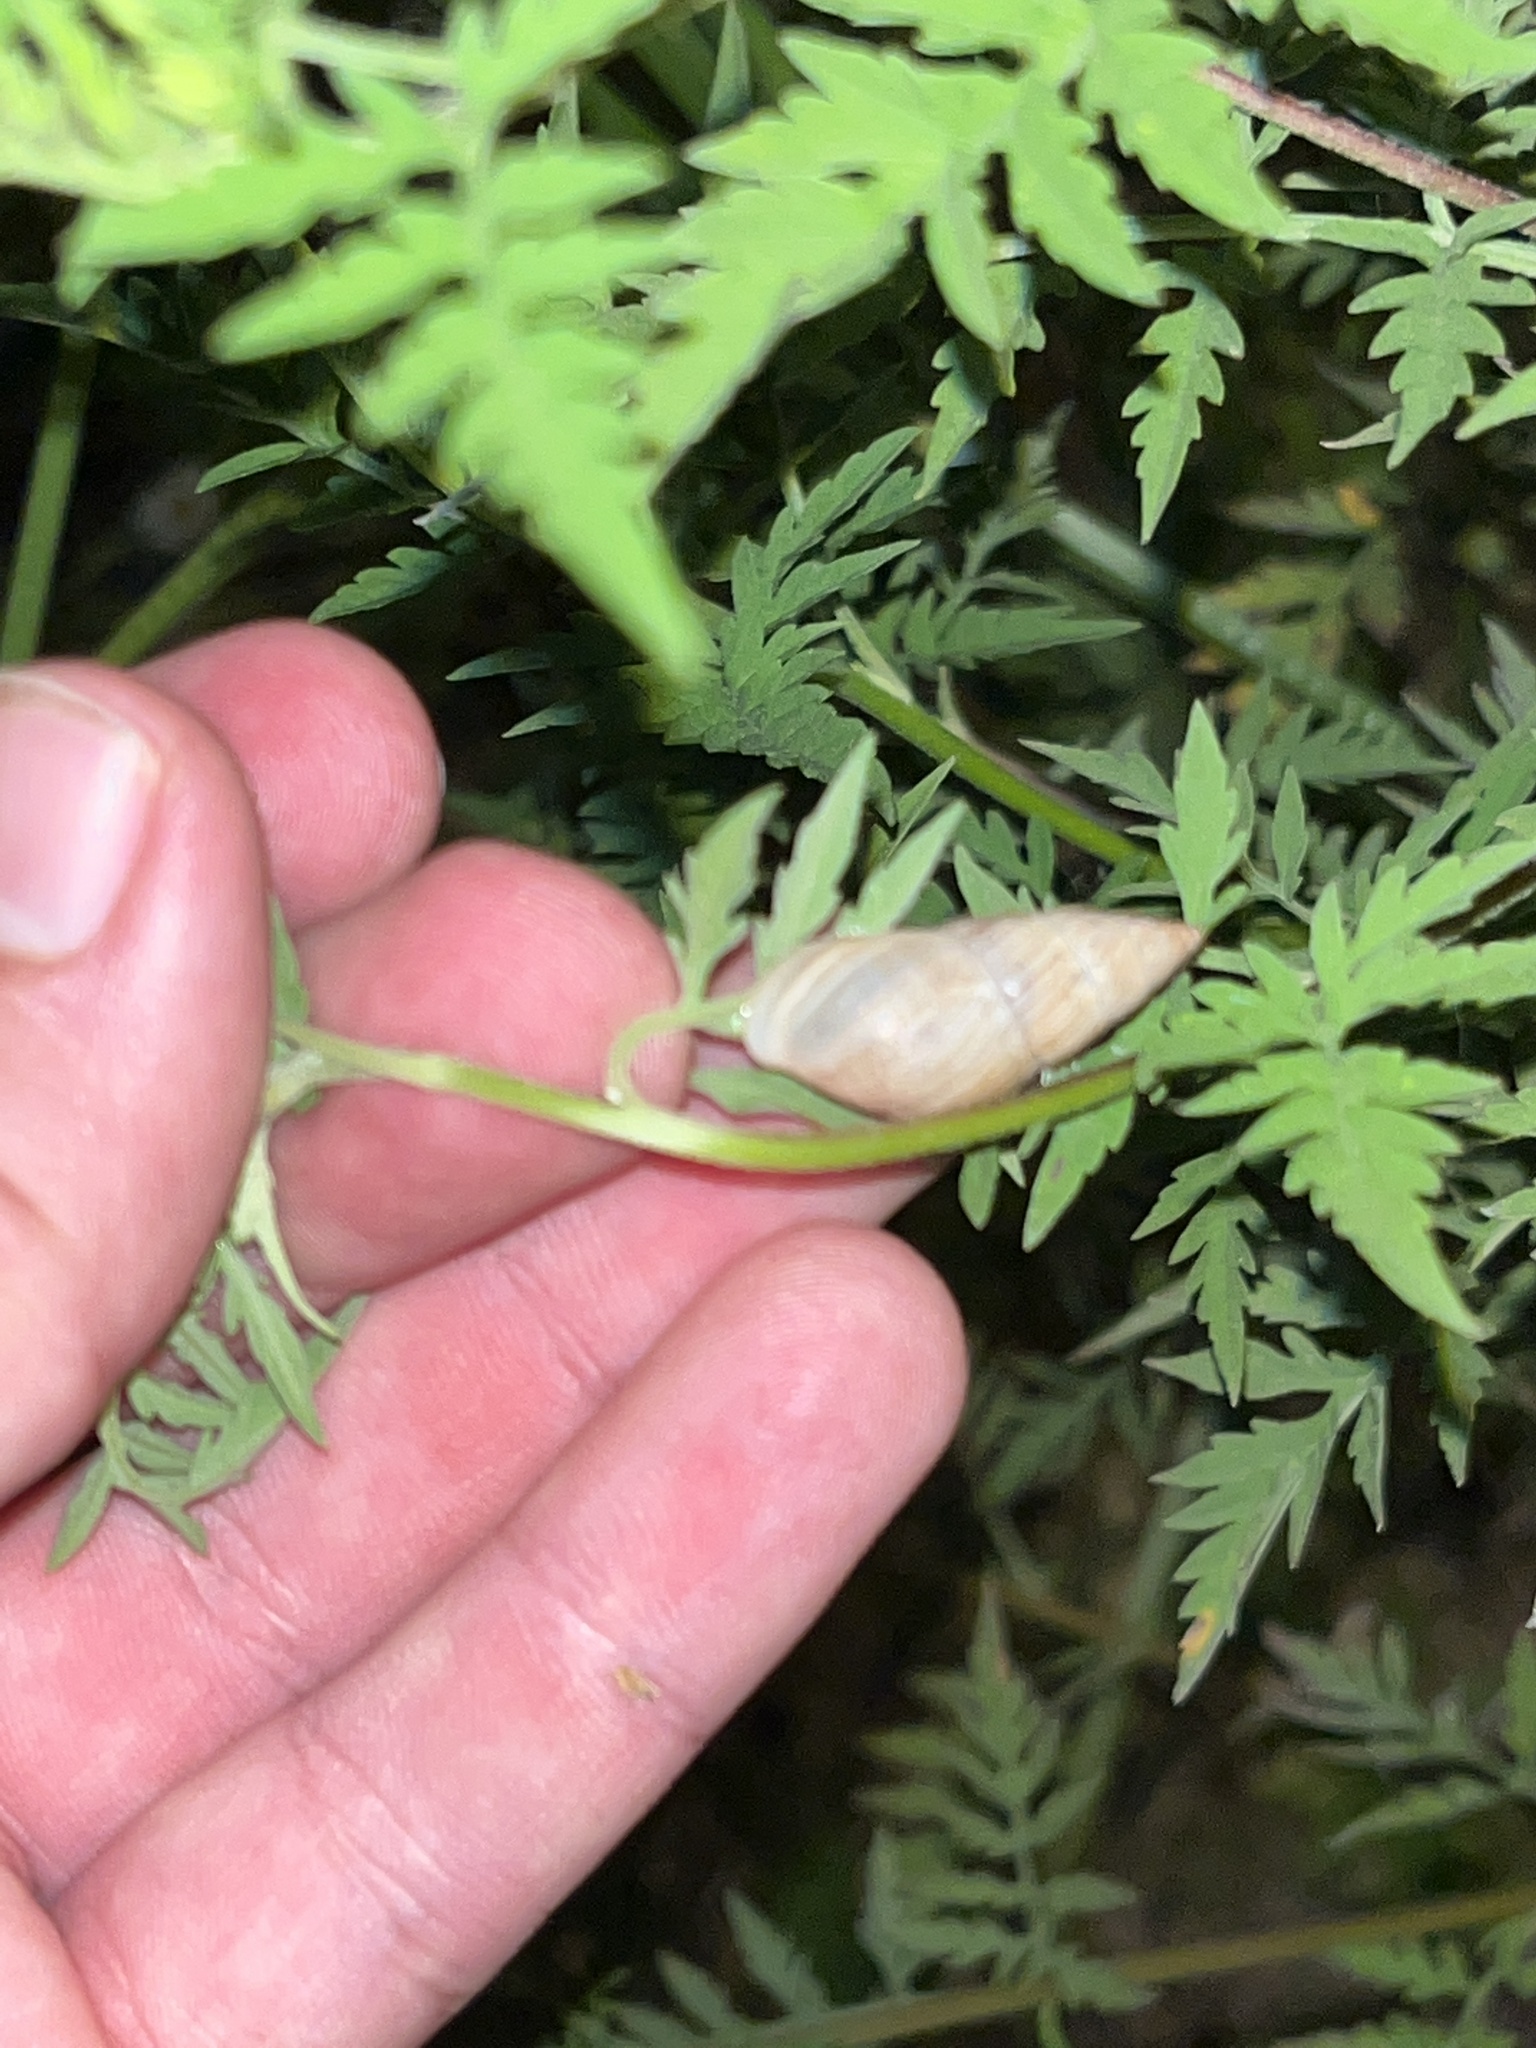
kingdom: Animalia
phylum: Mollusca
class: Gastropoda
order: Stylommatophora
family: Bulimulidae
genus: Bulimulus
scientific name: Bulimulus bonariensis
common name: Snail
